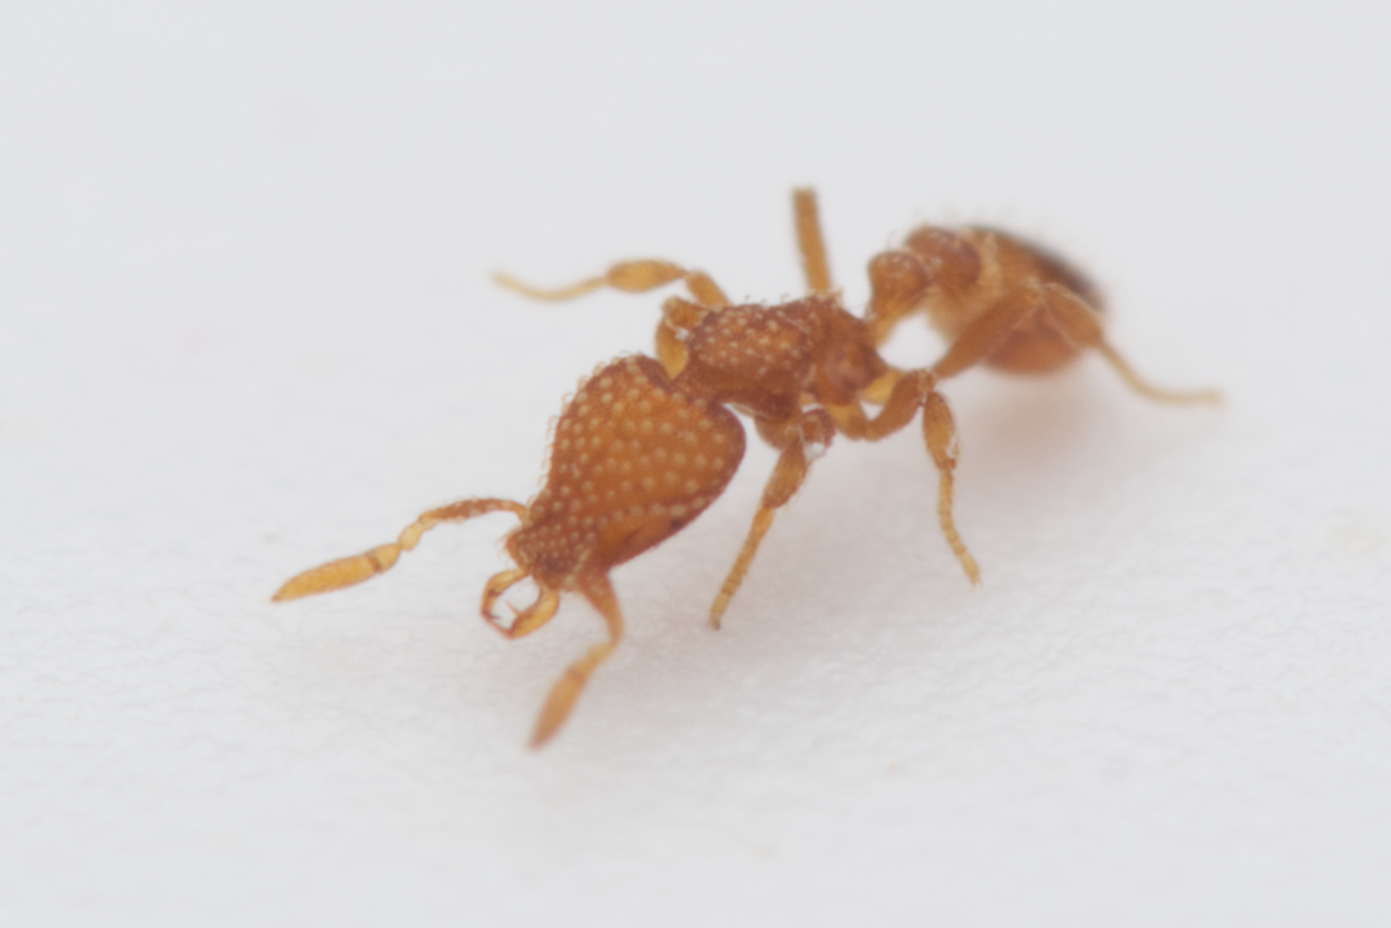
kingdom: Animalia
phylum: Arthropoda
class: Insecta
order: Hymenoptera
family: Formicidae
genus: Pyramica
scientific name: Pyramica emmae
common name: Ant
